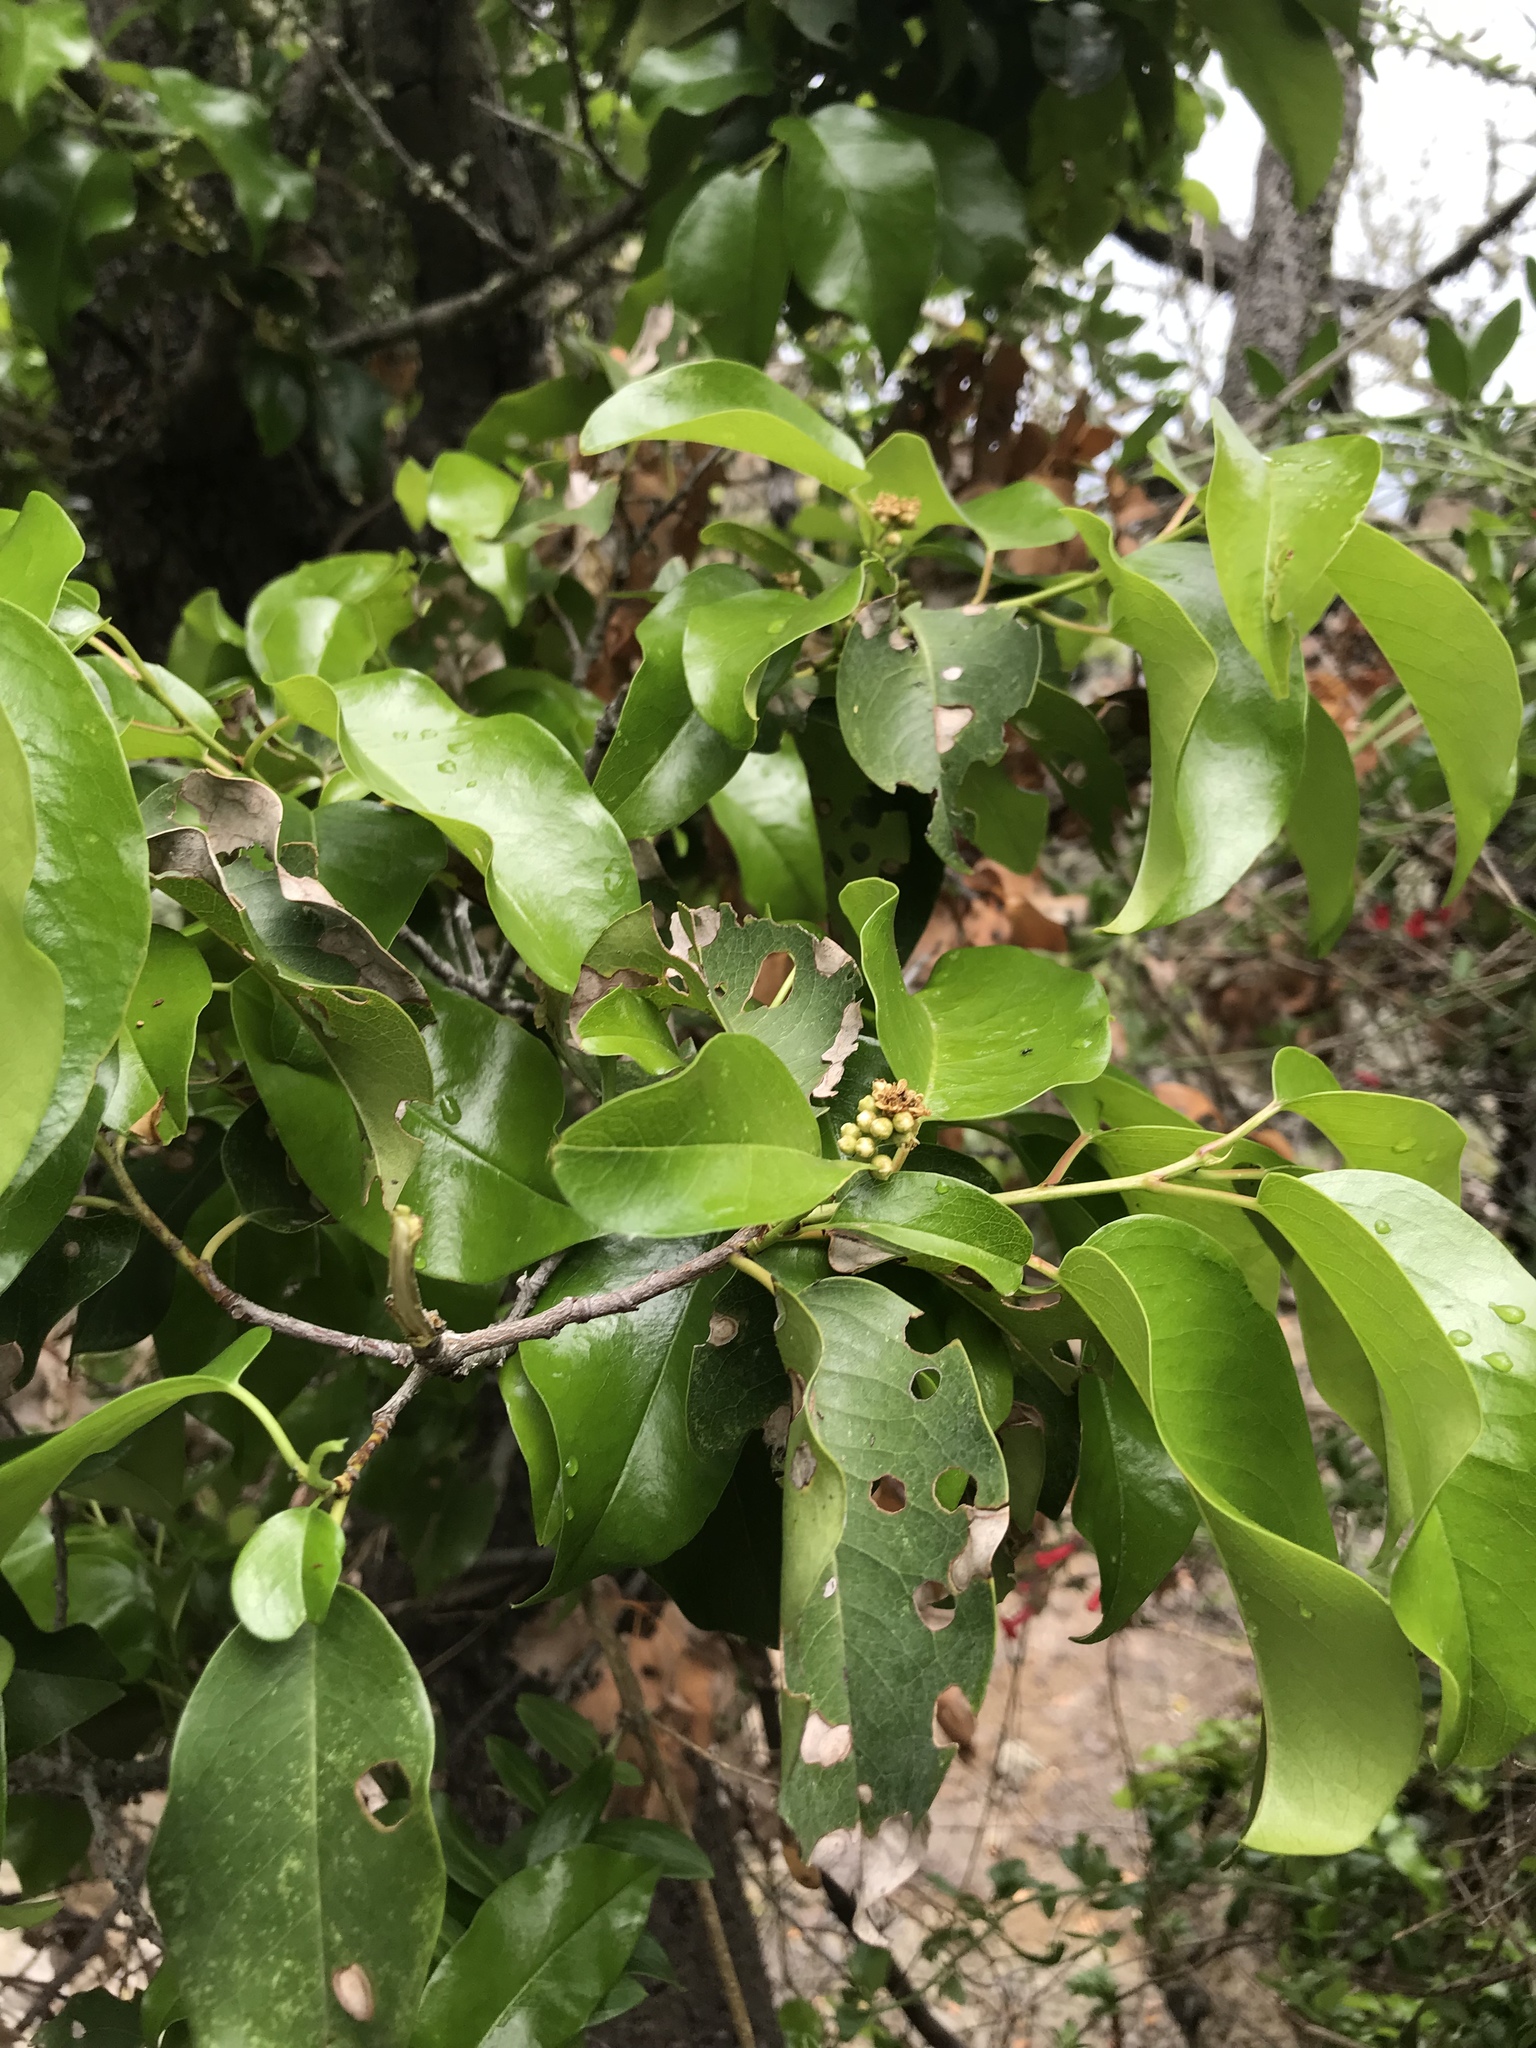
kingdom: Plantae
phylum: Tracheophyta
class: Magnoliopsida
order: Rosales
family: Rosaceae
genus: Prunus
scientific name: Prunus ilicifolia
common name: Hollyleaf cherry
